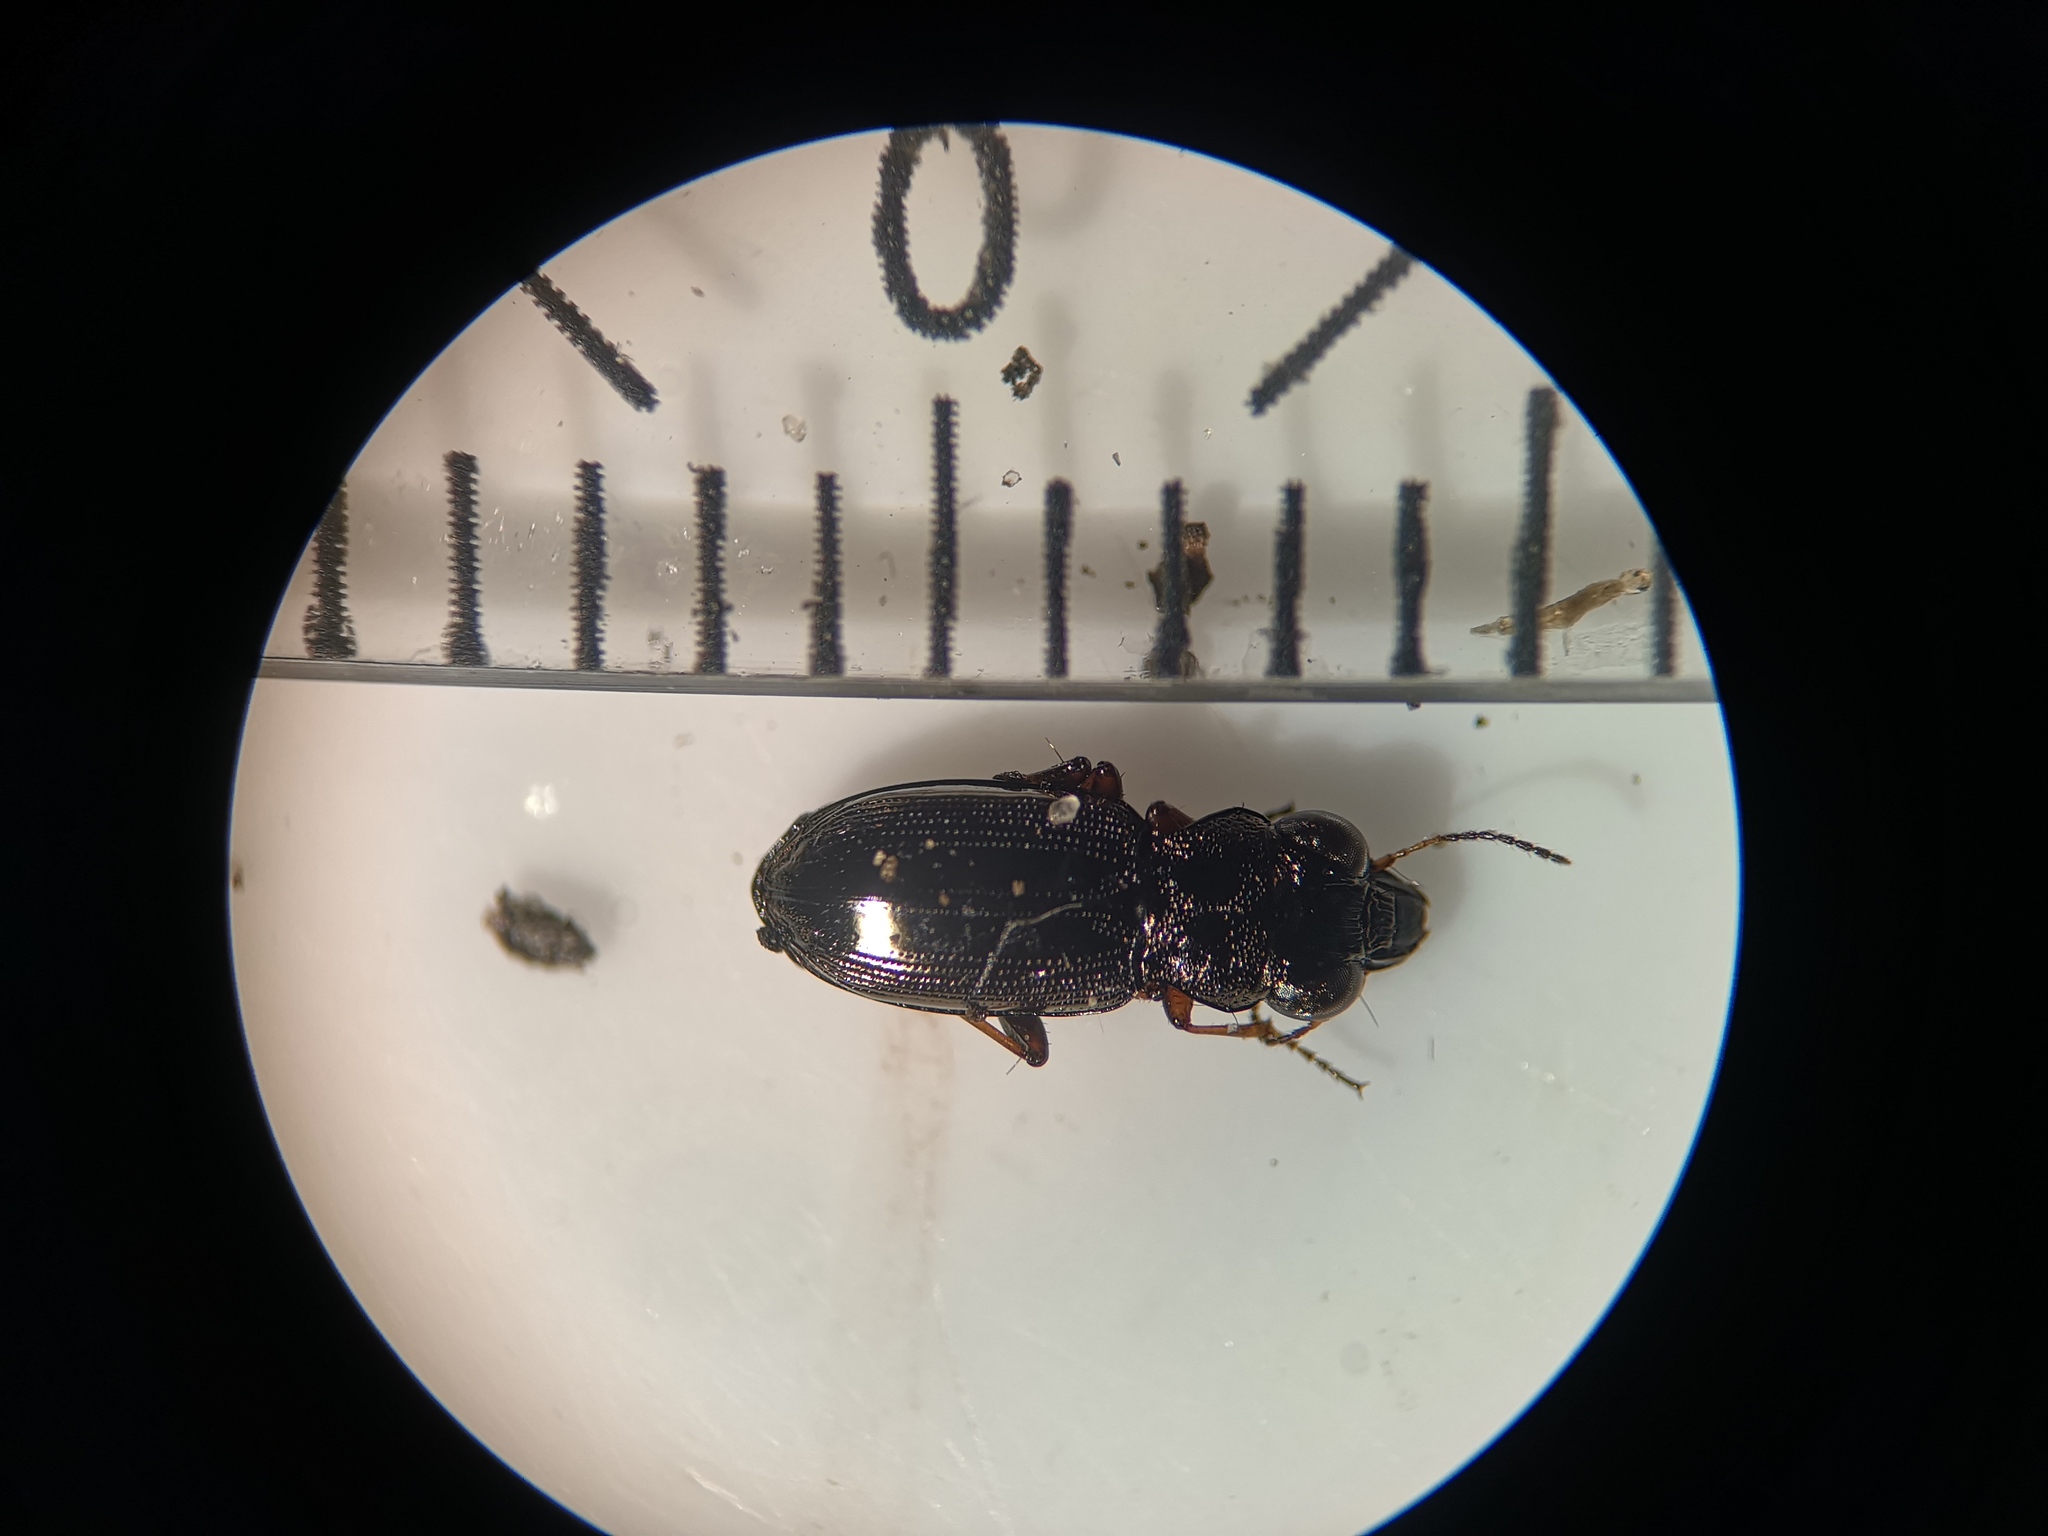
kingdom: Animalia
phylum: Arthropoda
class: Insecta
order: Coleoptera
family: Carabidae
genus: Notiophilus
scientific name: Notiophilus rufipes
